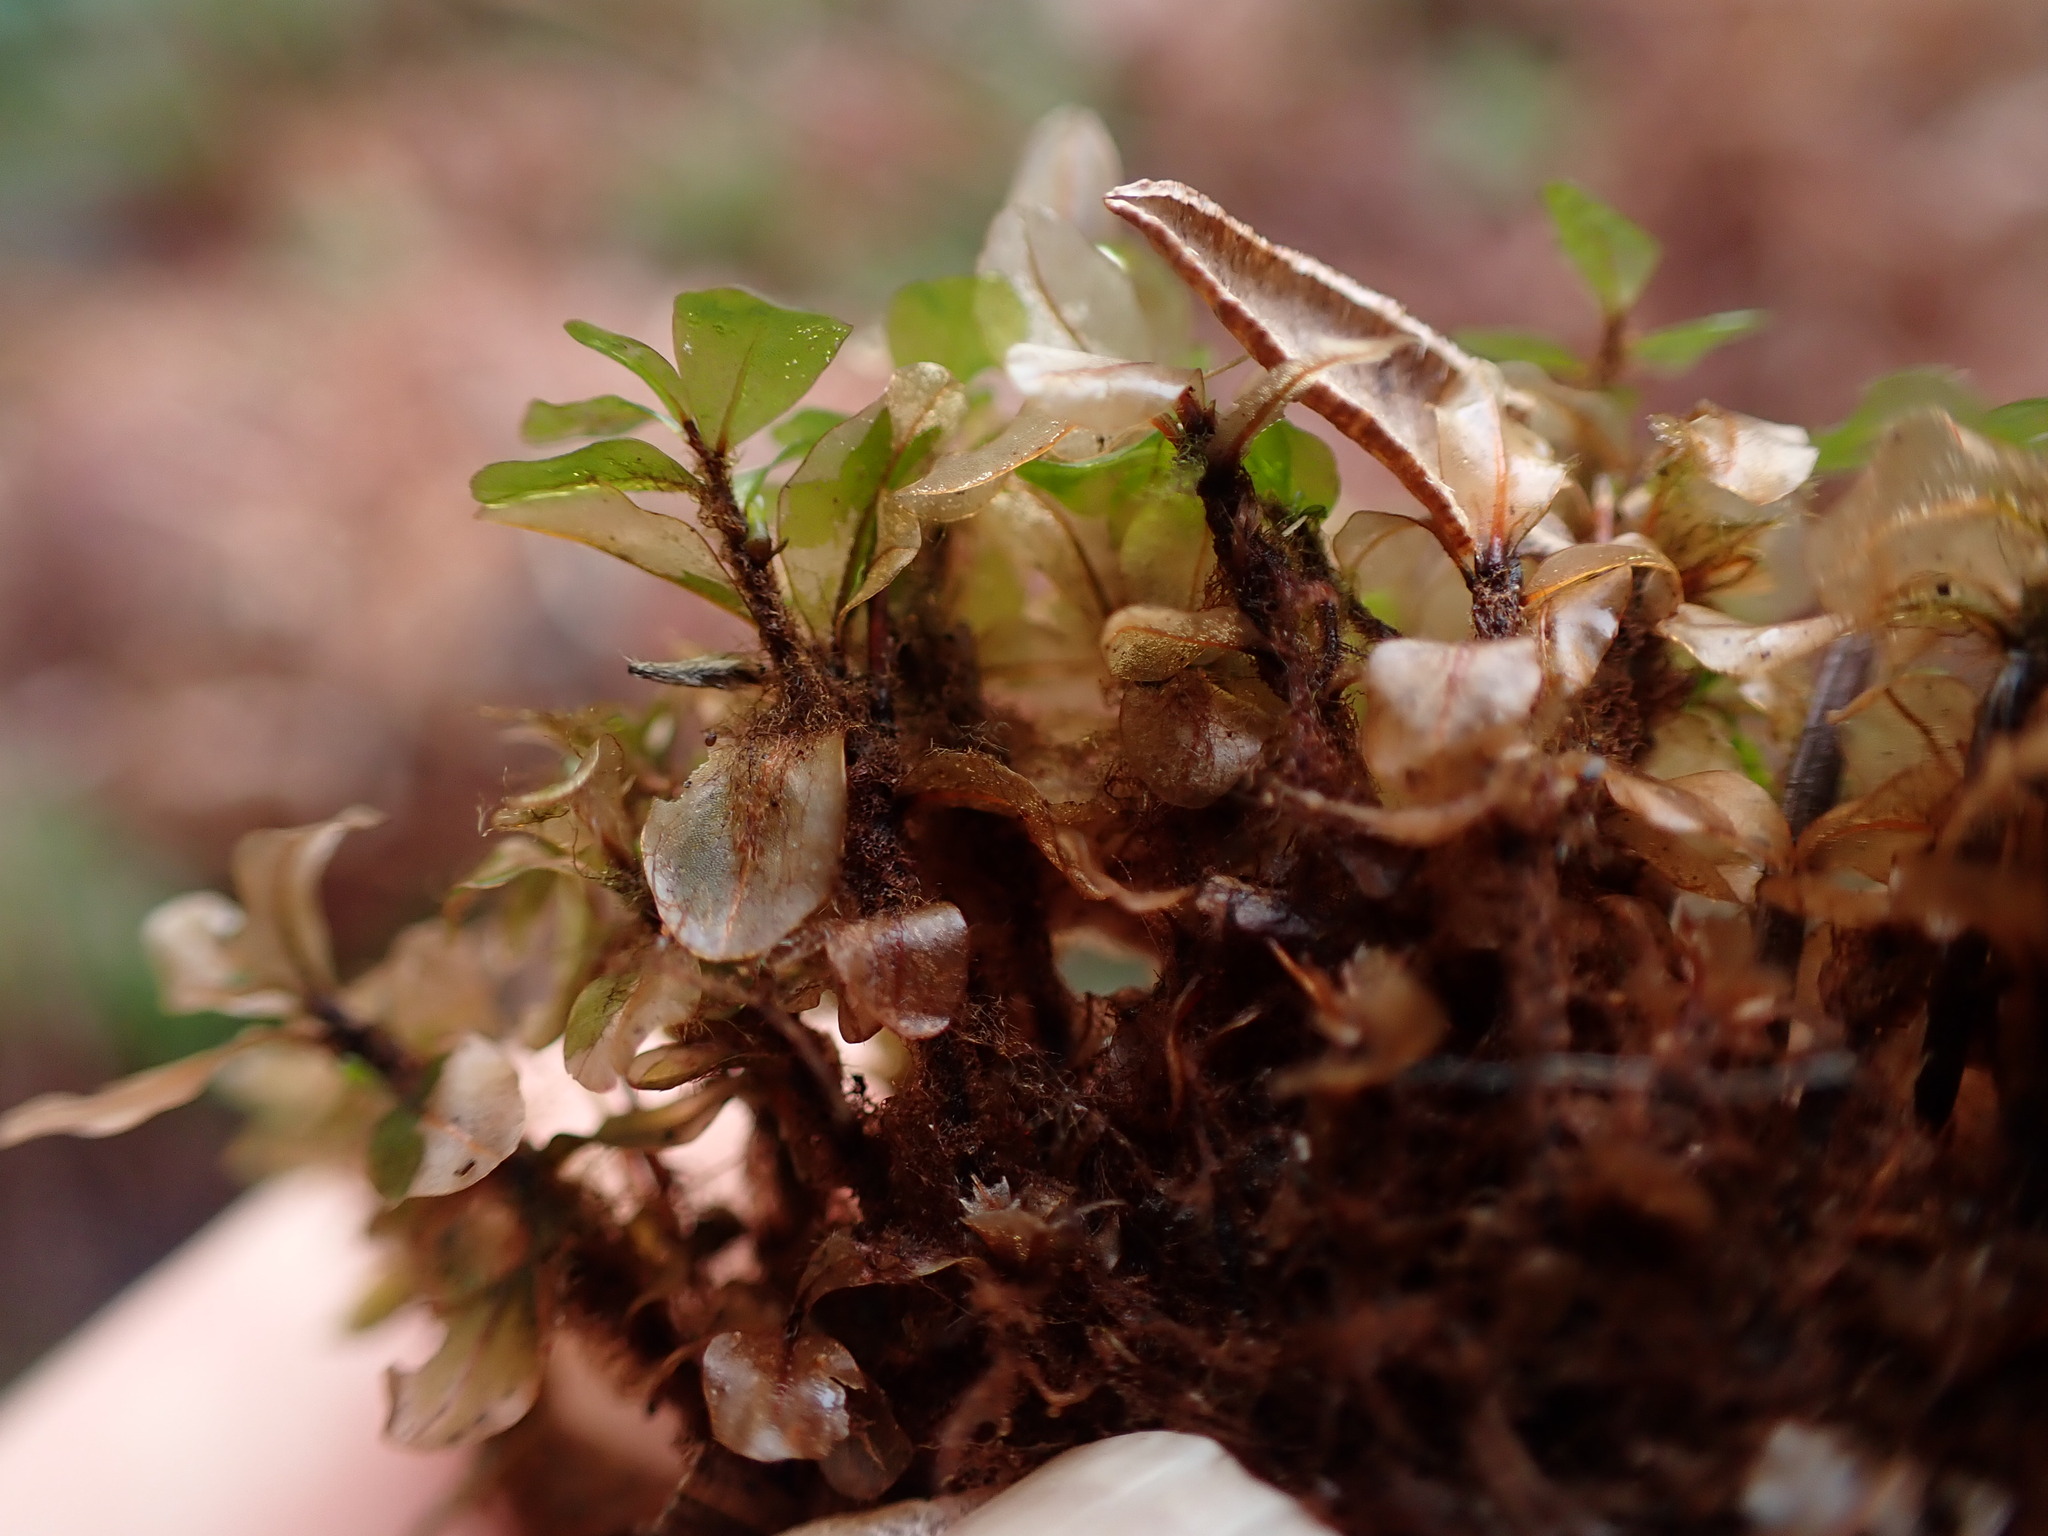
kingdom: Plantae
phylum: Bryophyta
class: Bryopsida
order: Bryales
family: Mniaceae
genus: Rhizomnium
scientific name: Rhizomnium magnifolium
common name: Large-leaved leafy moss
